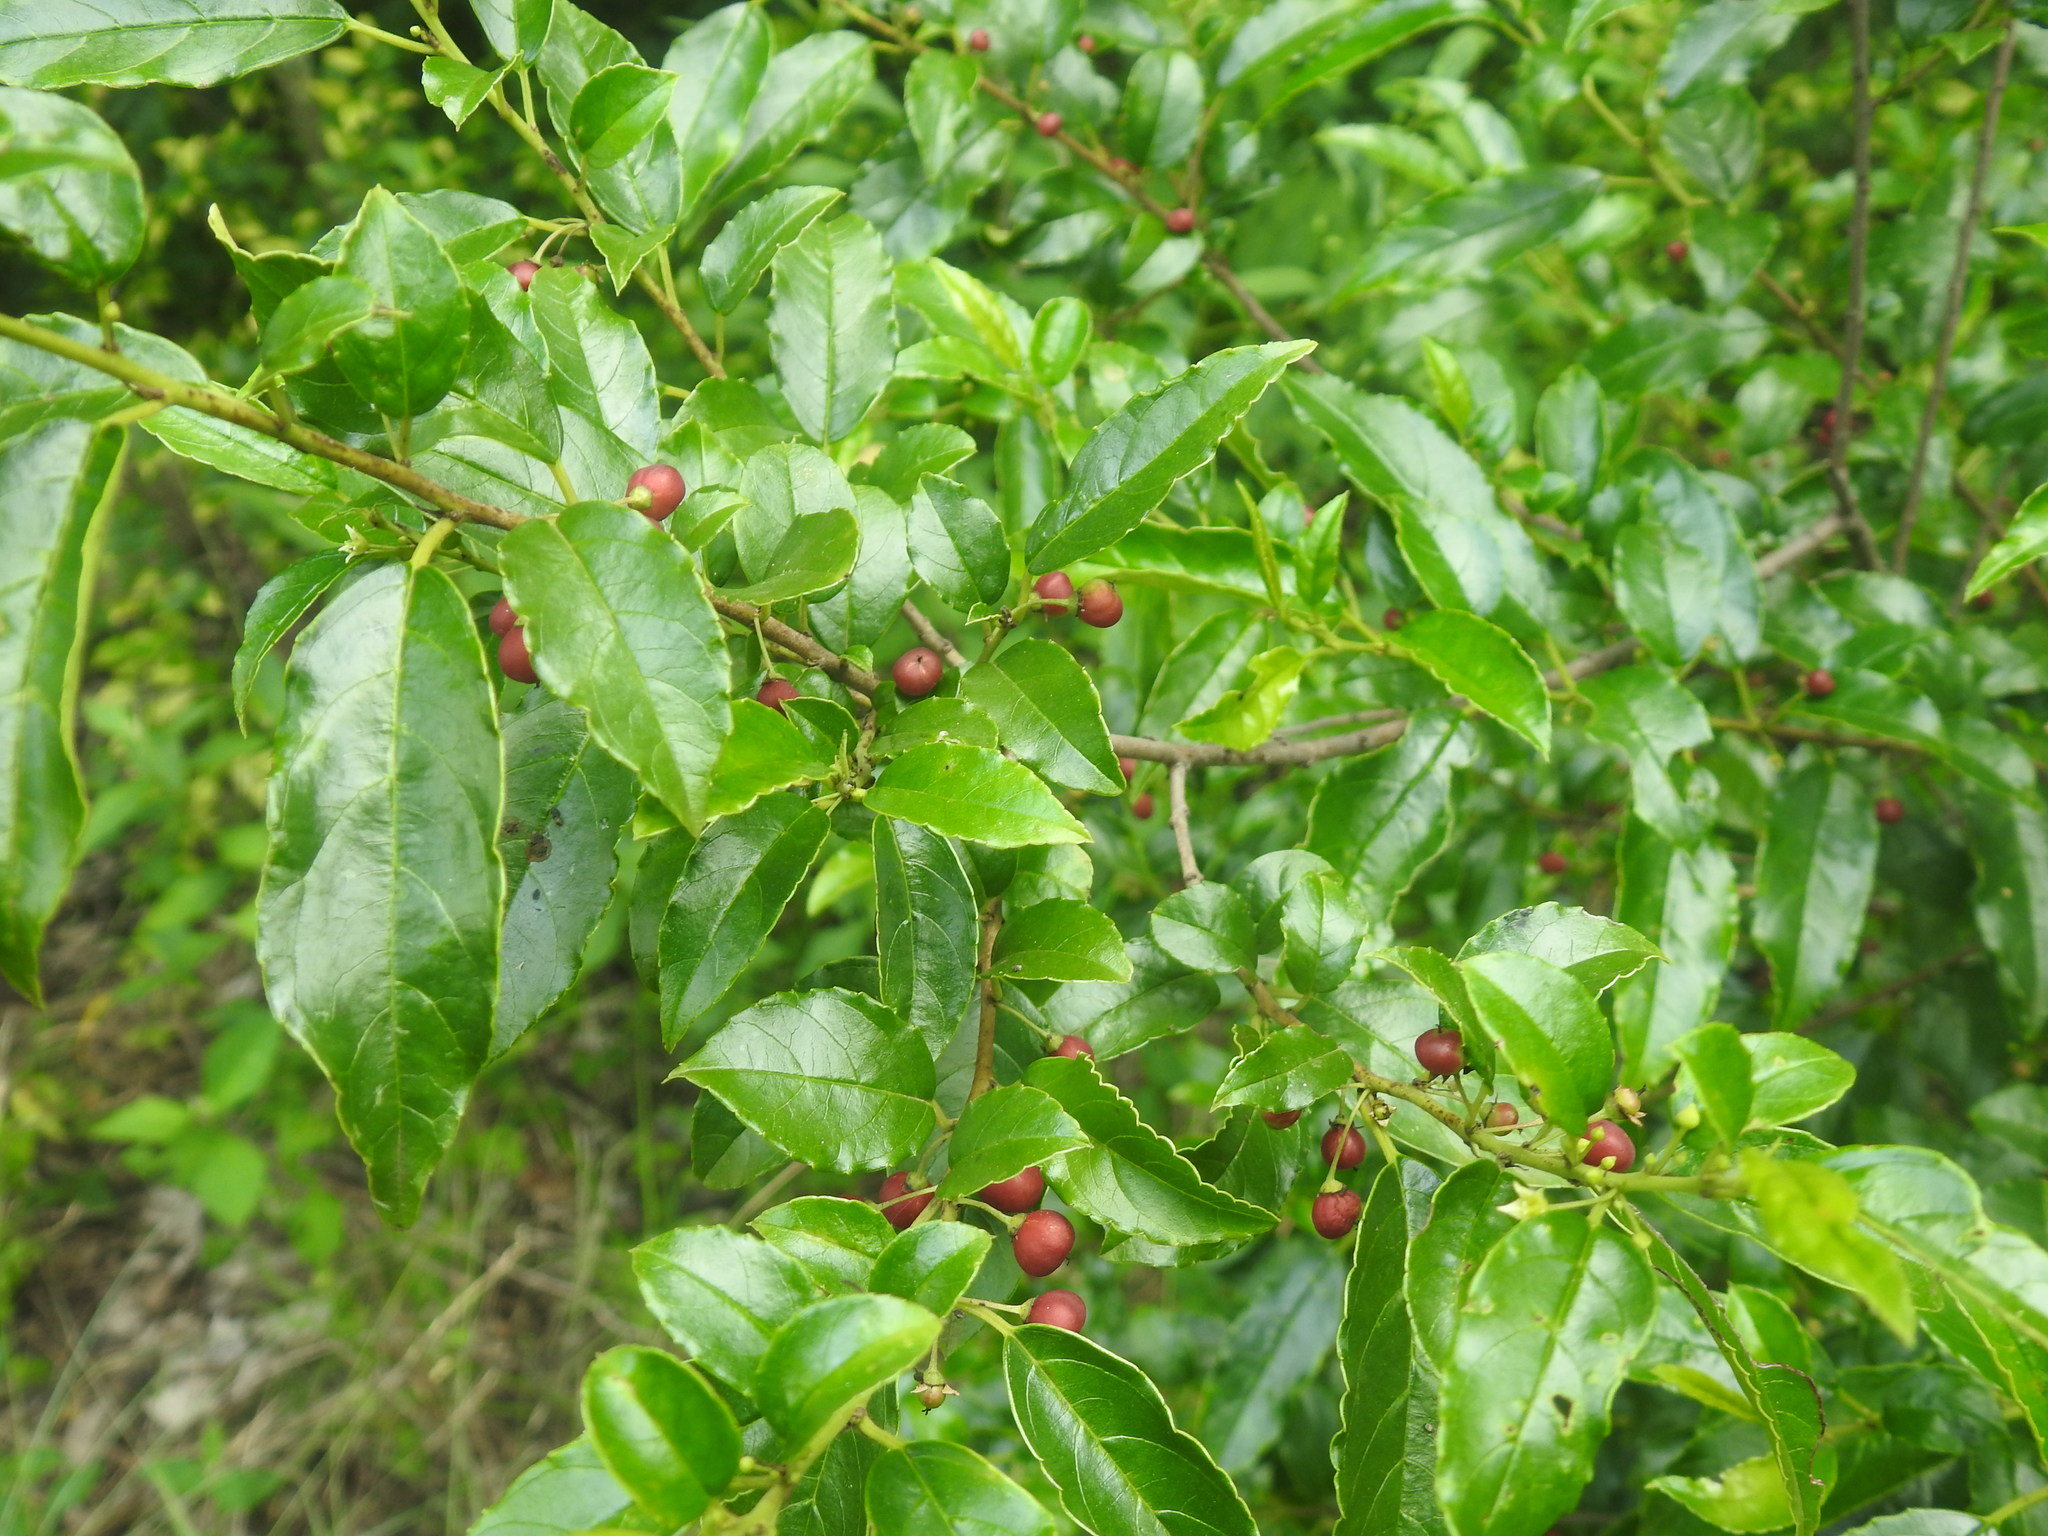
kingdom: Plantae
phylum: Tracheophyta
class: Magnoliopsida
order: Rosales
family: Rhamnaceae
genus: Rhamnus
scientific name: Rhamnus prinoides
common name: Dogwood
